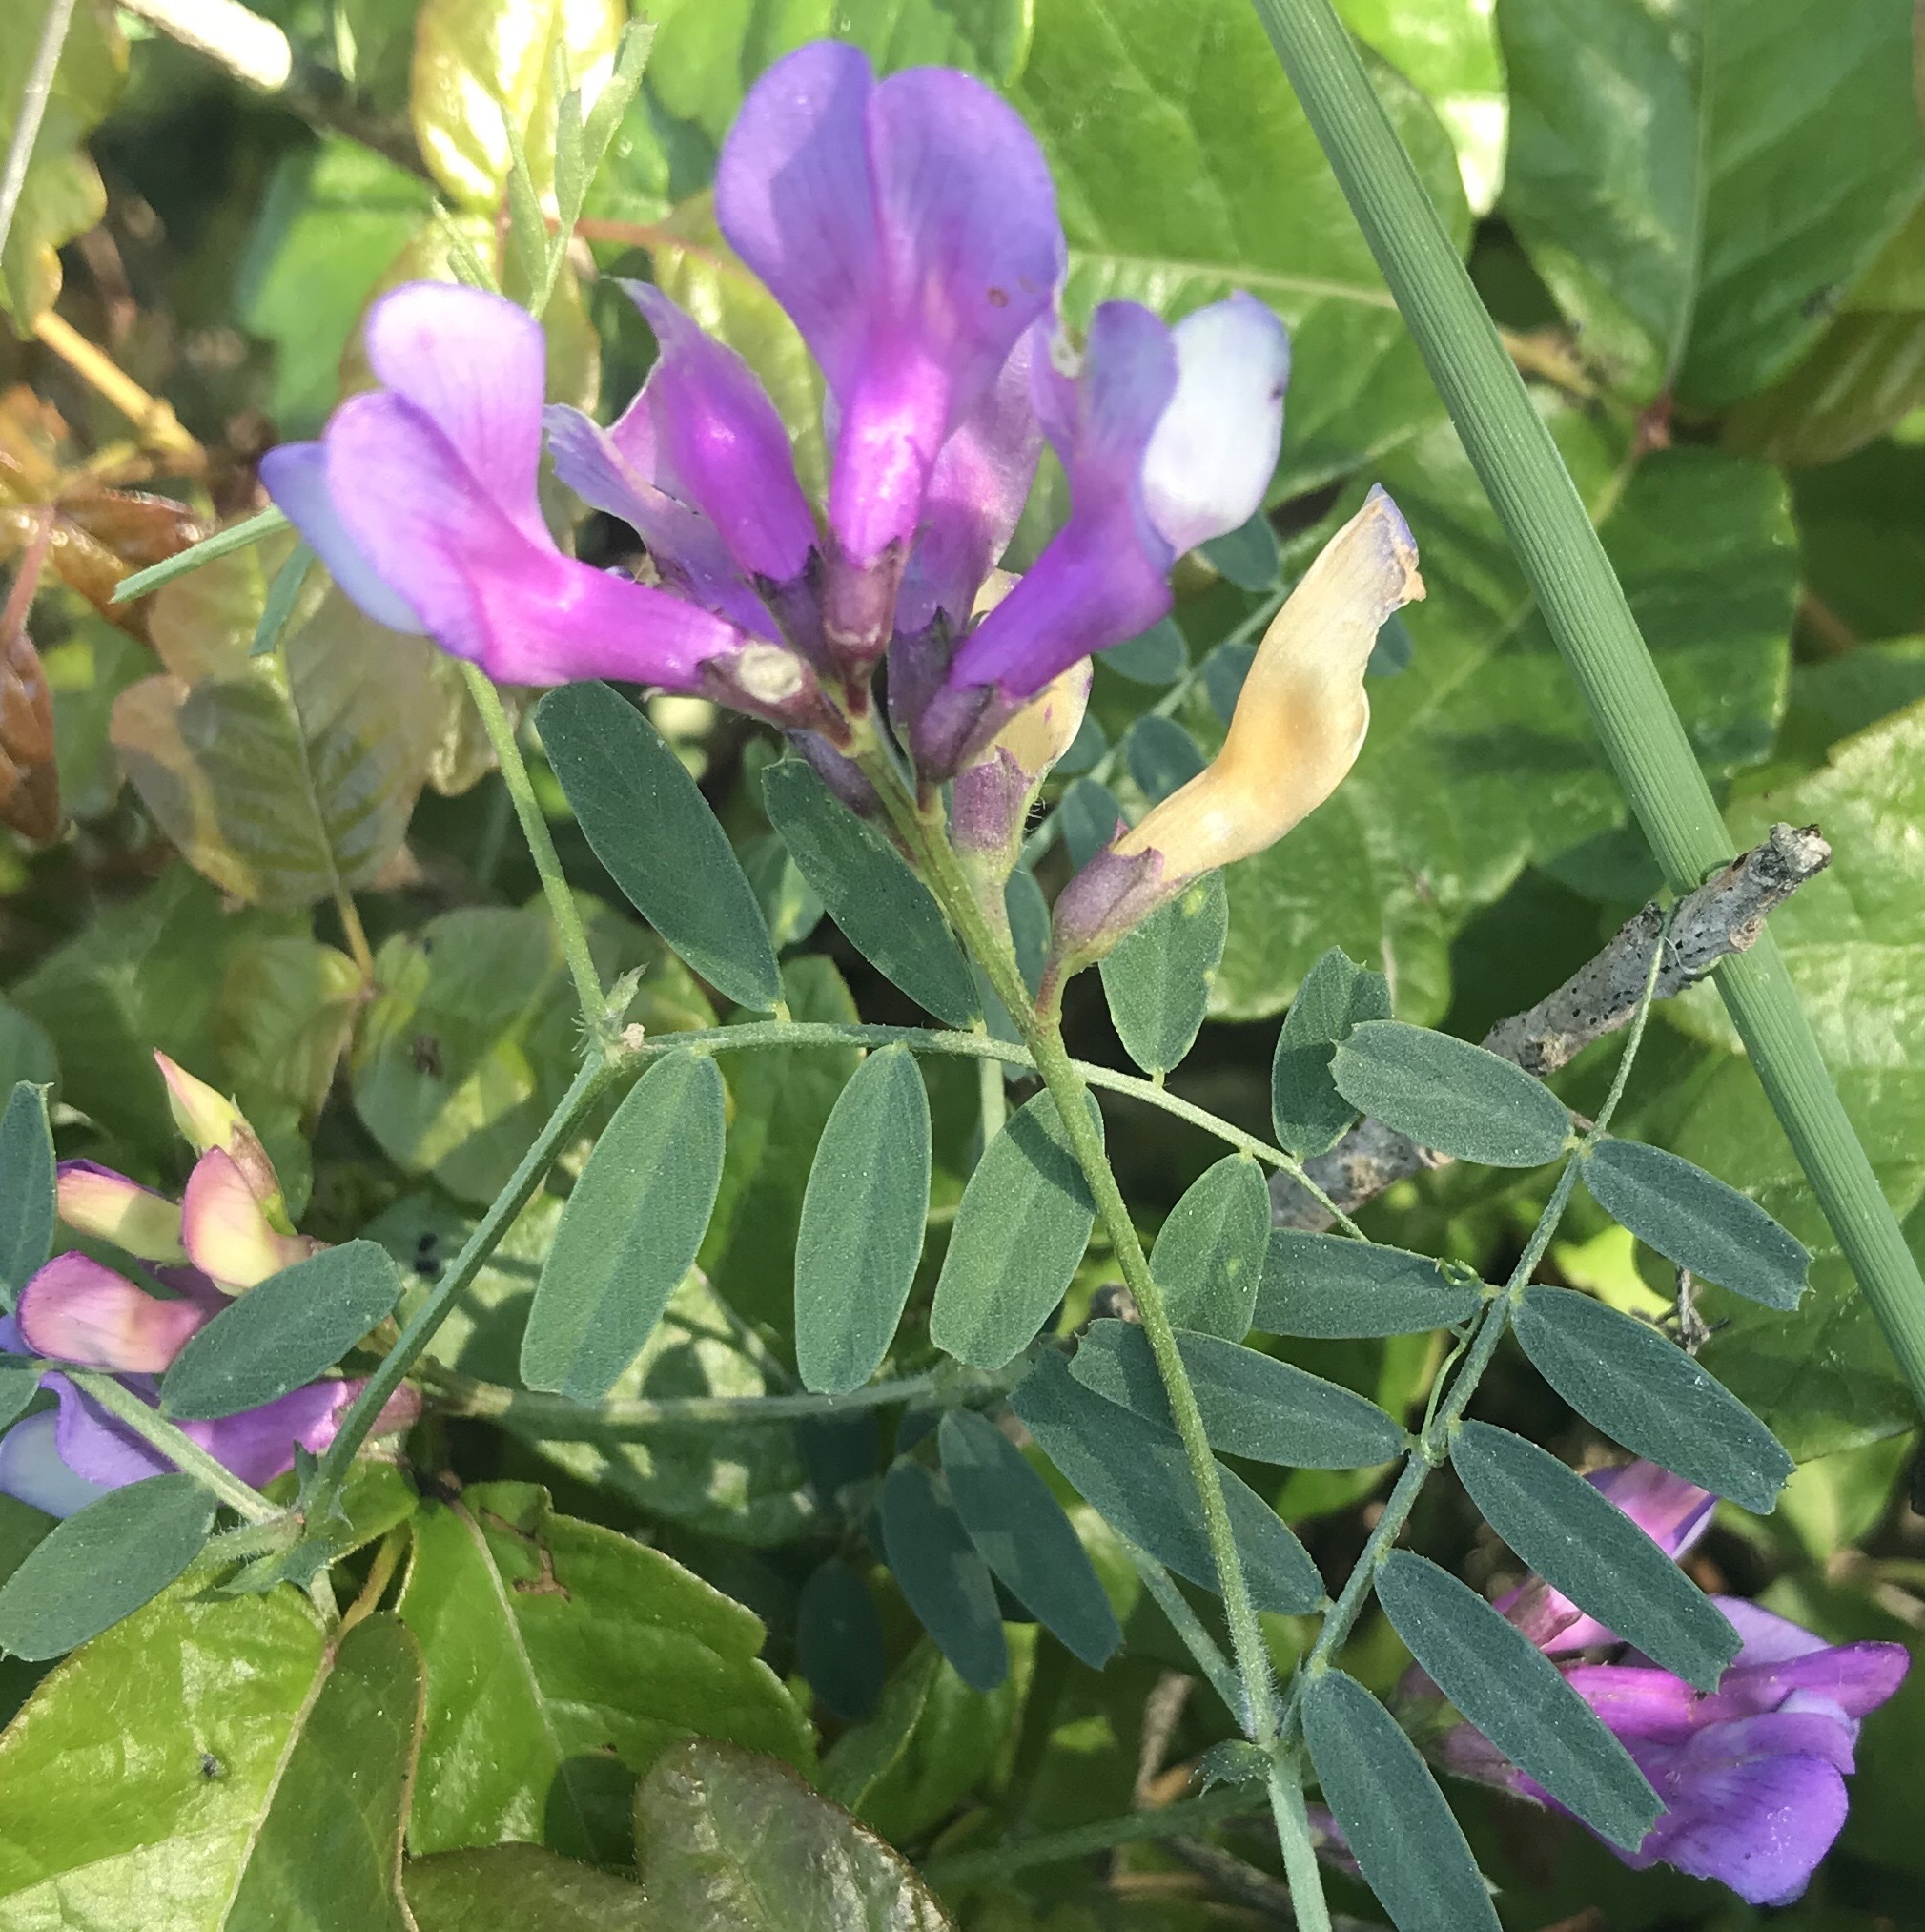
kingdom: Plantae
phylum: Tracheophyta
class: Magnoliopsida
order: Fabales
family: Fabaceae
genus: Vicia
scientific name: Vicia americana
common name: American vetch
